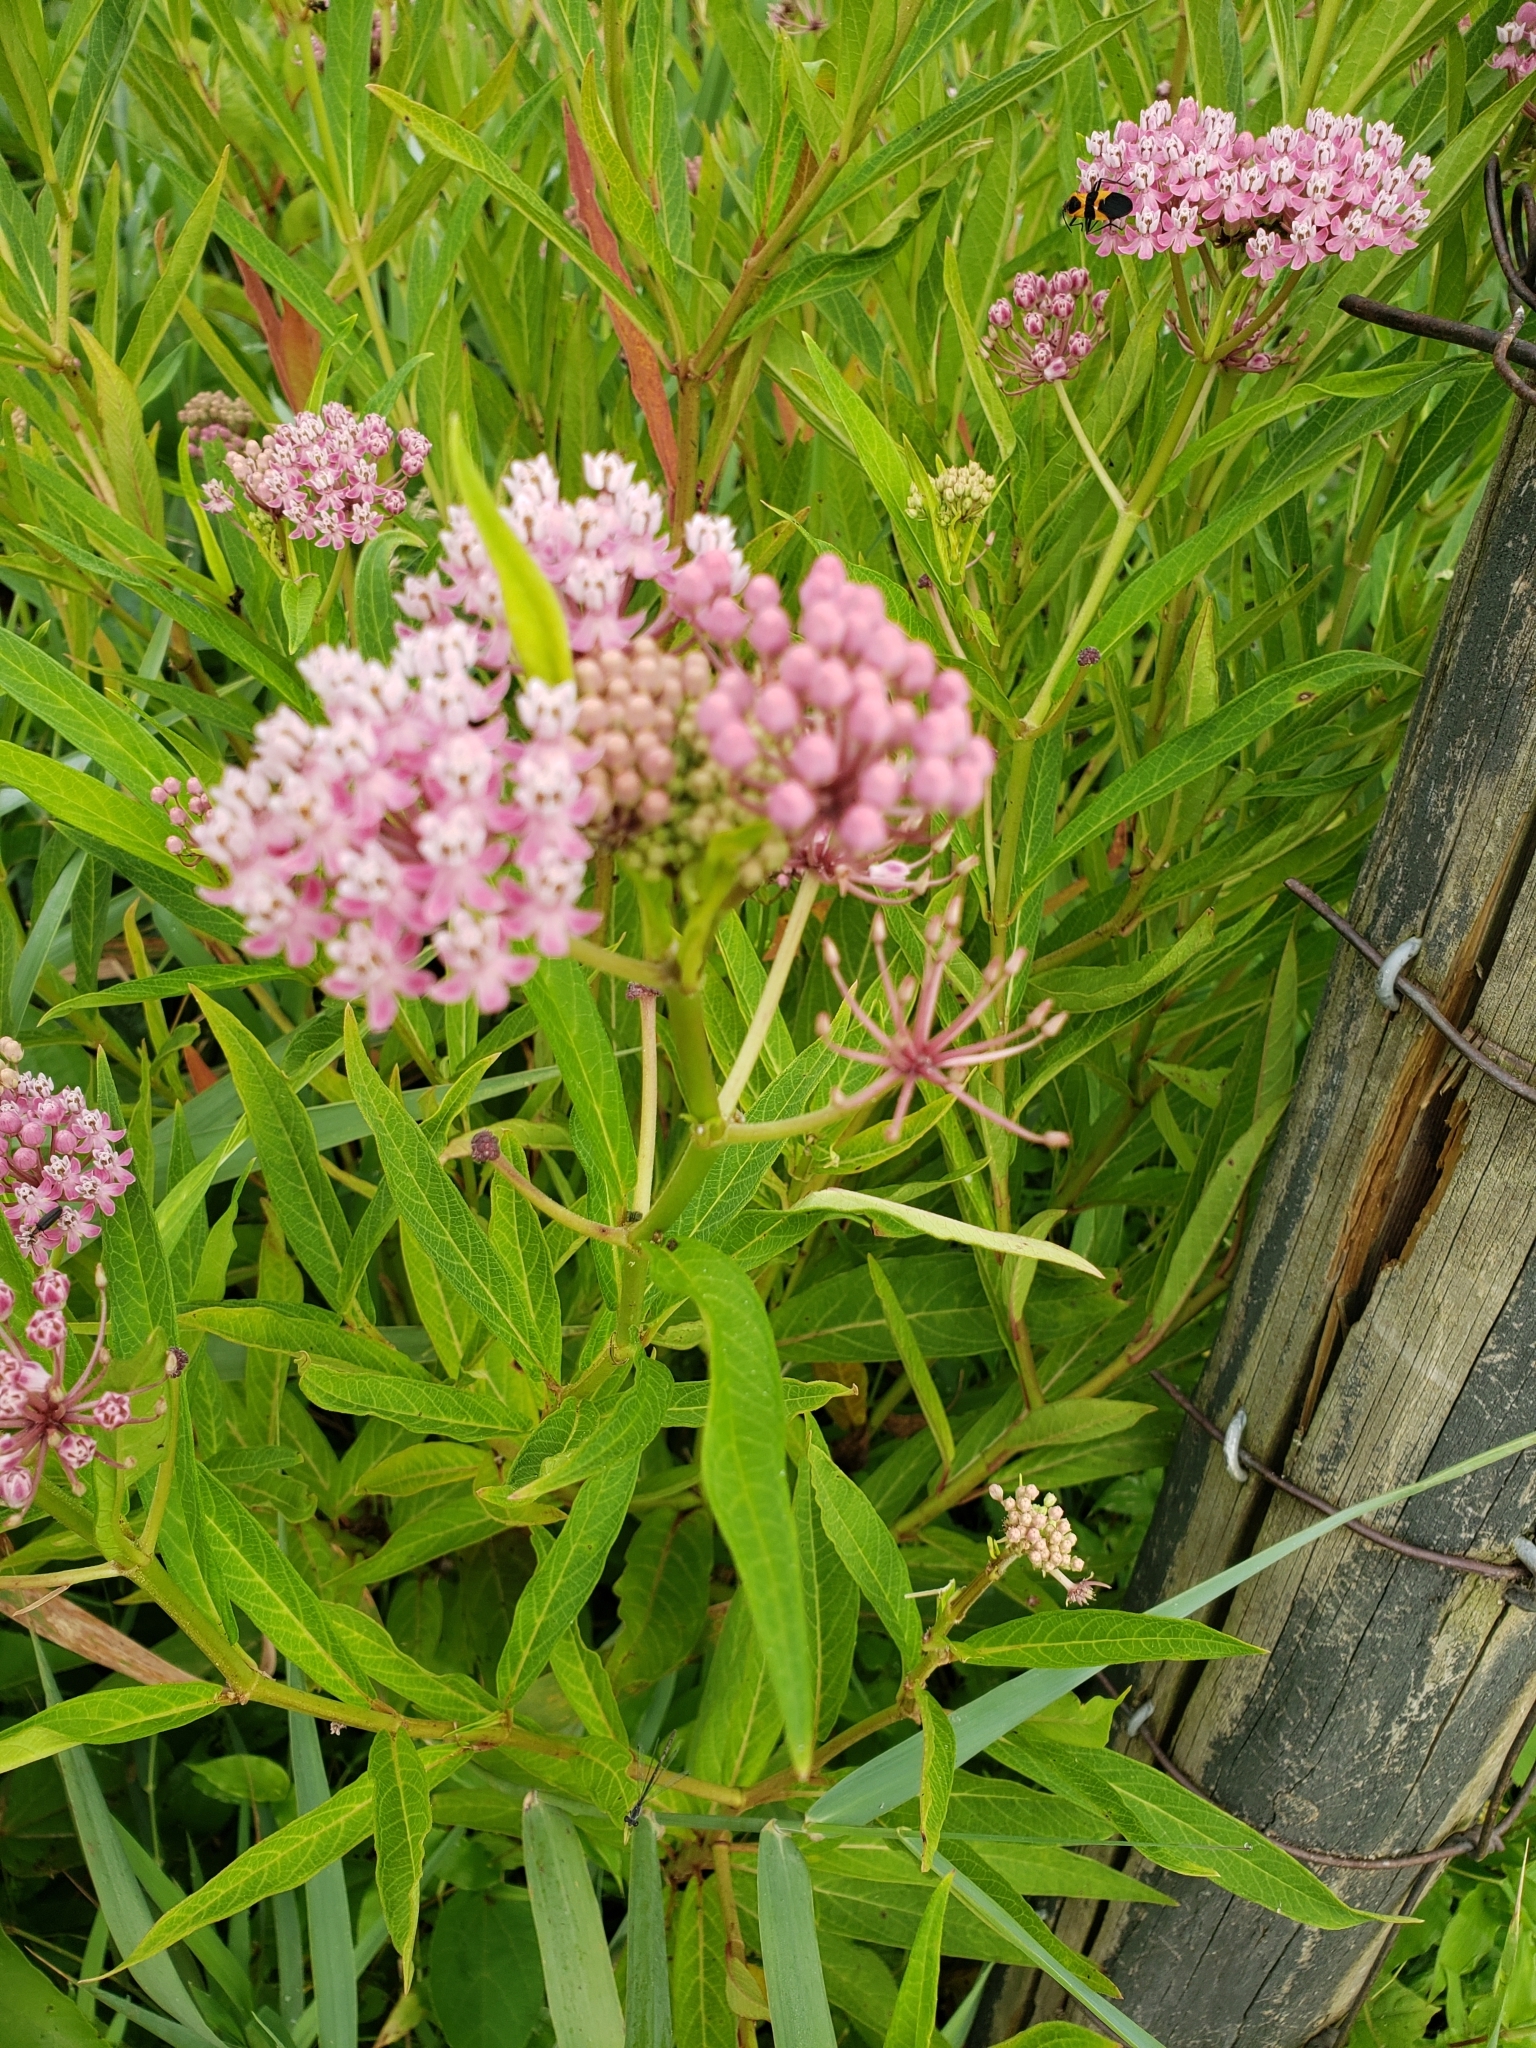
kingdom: Plantae
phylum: Tracheophyta
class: Magnoliopsida
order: Gentianales
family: Apocynaceae
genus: Asclepias
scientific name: Asclepias incarnata
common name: Swamp milkweed
